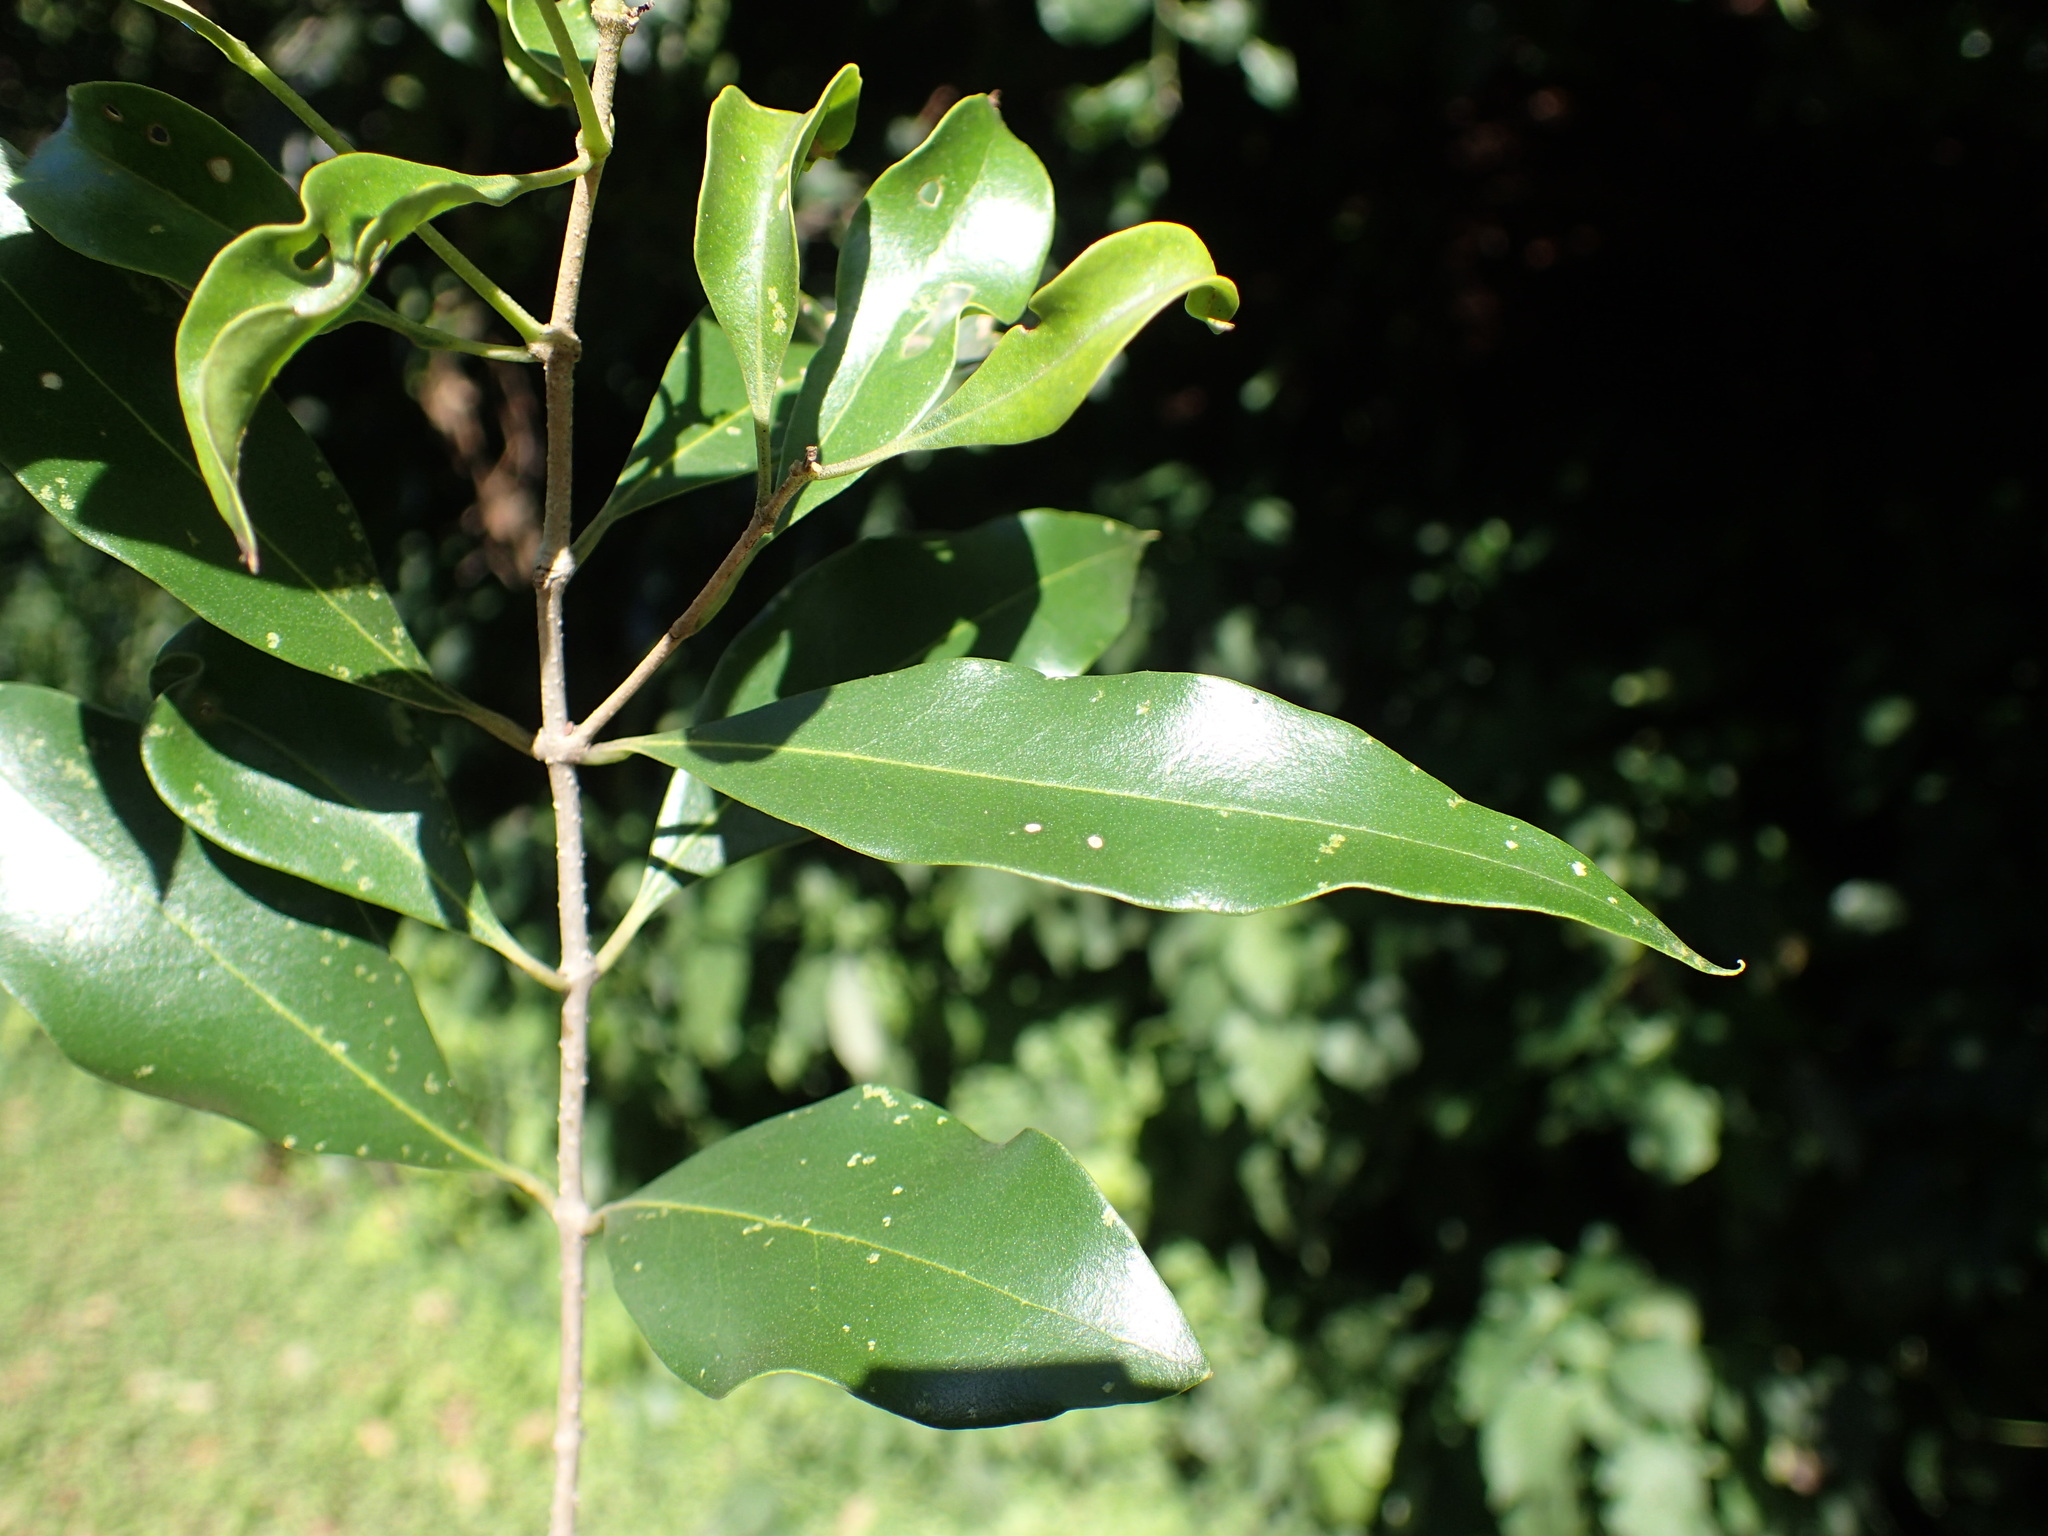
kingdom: Plantae
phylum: Tracheophyta
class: Magnoliopsida
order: Lamiales
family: Oleaceae
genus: Olea
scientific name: Olea woodiana
